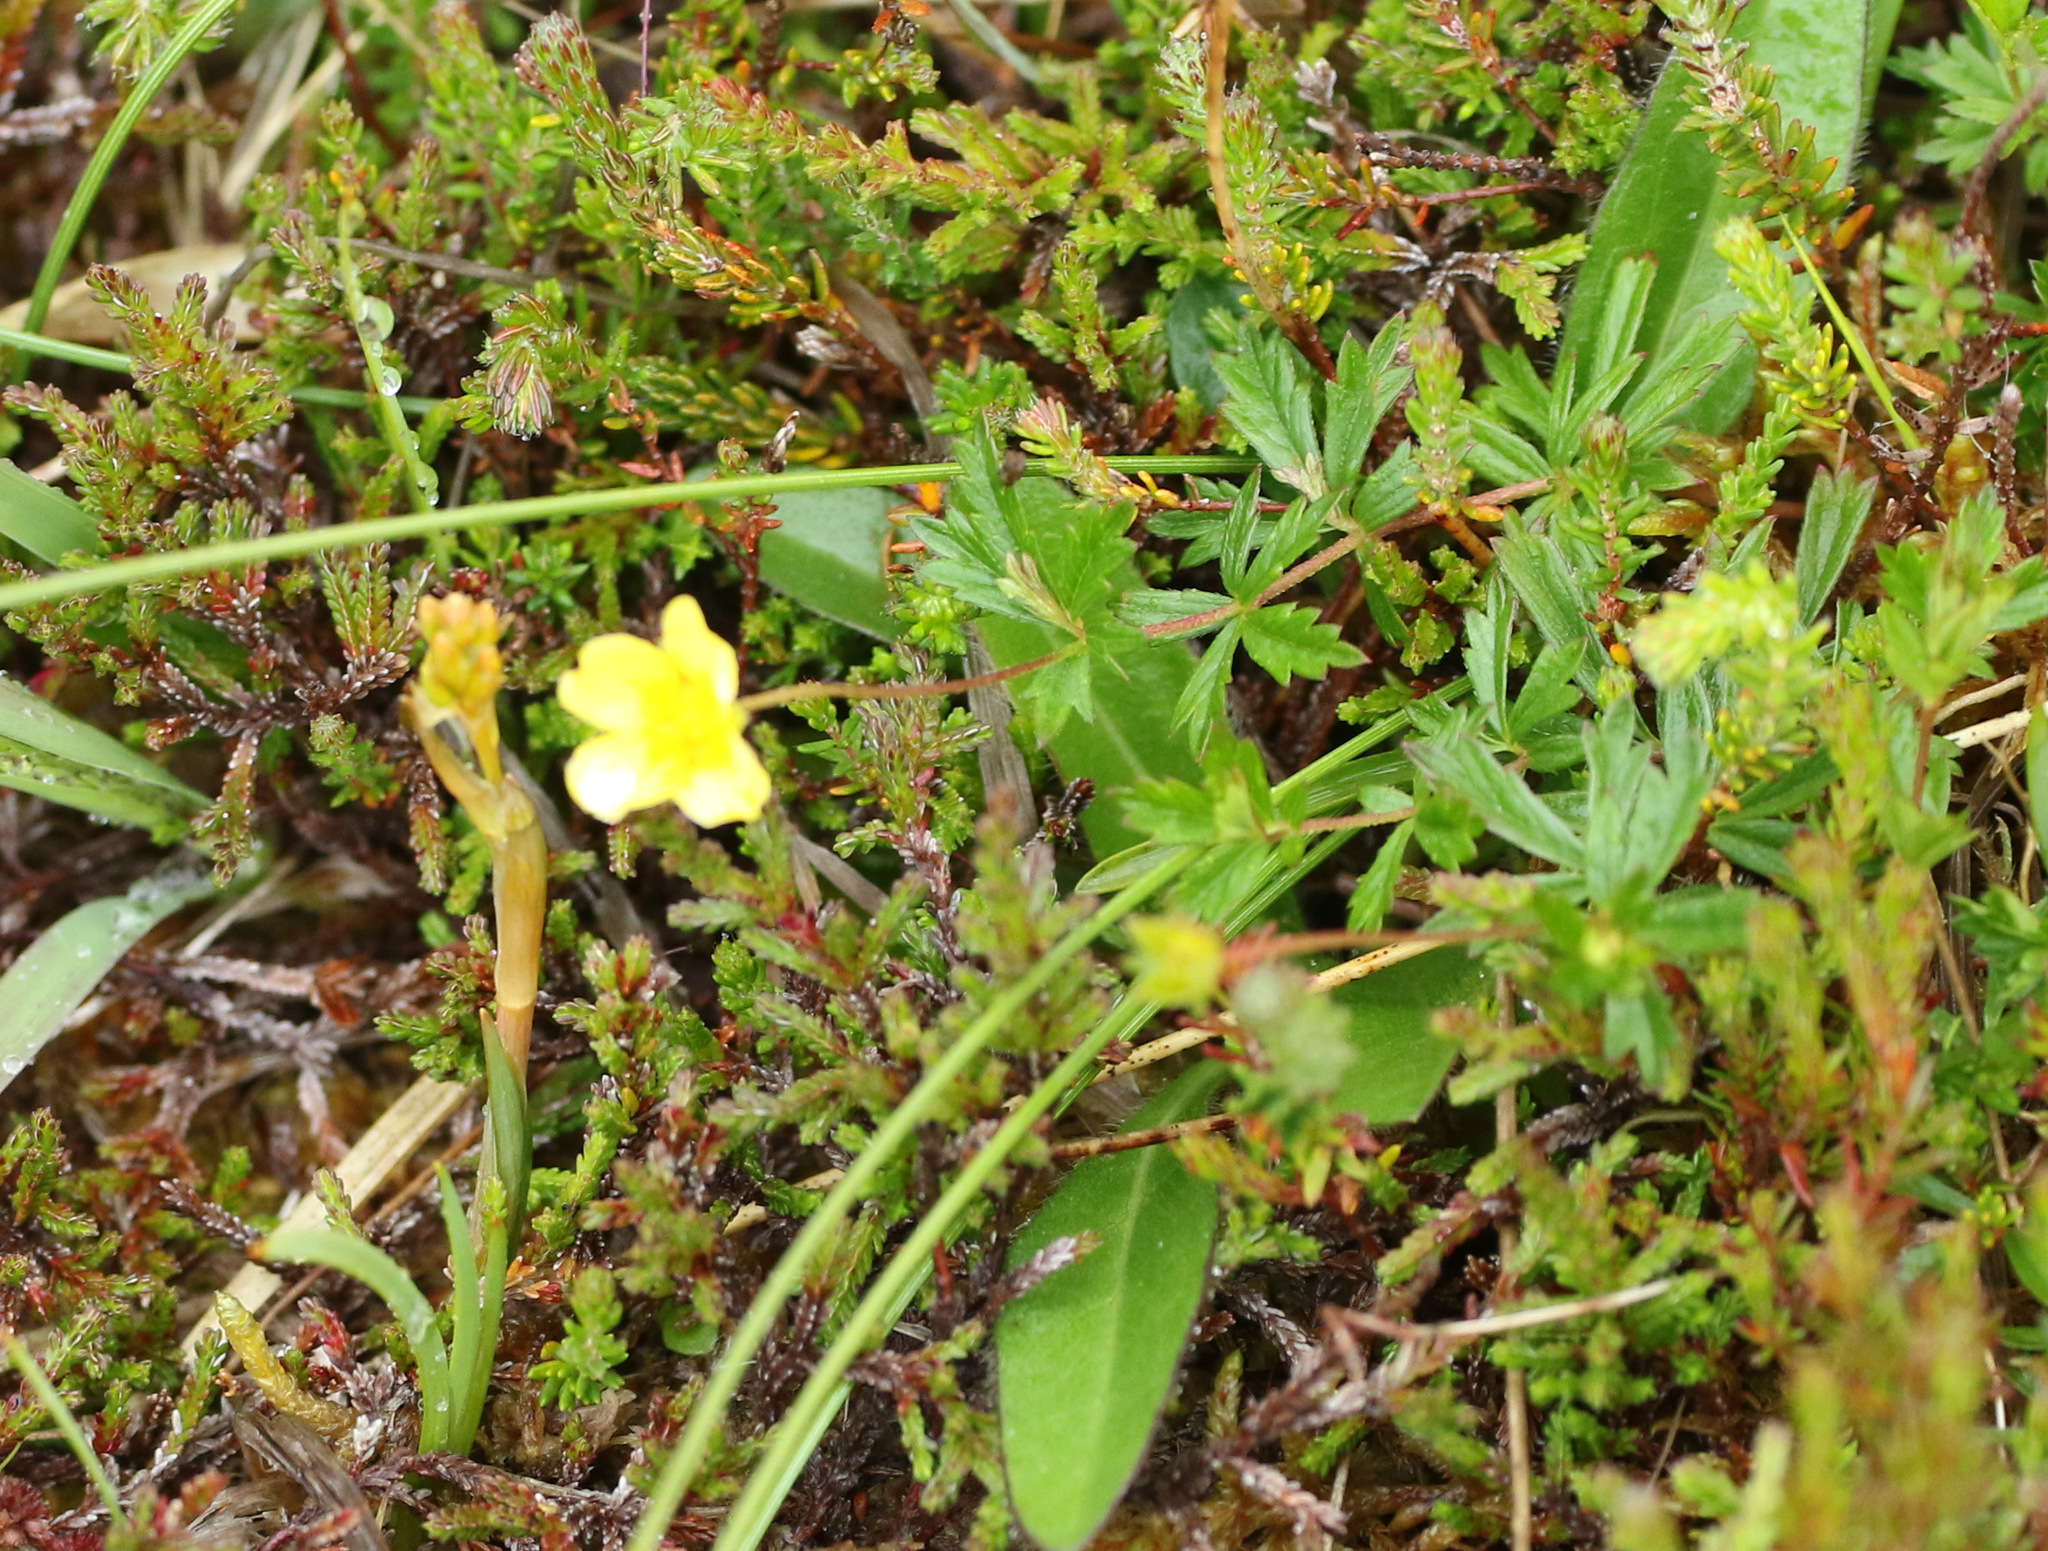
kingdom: Plantae
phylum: Tracheophyta
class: Magnoliopsida
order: Rosales
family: Rosaceae
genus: Potentilla
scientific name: Potentilla erecta
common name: Tormentil
